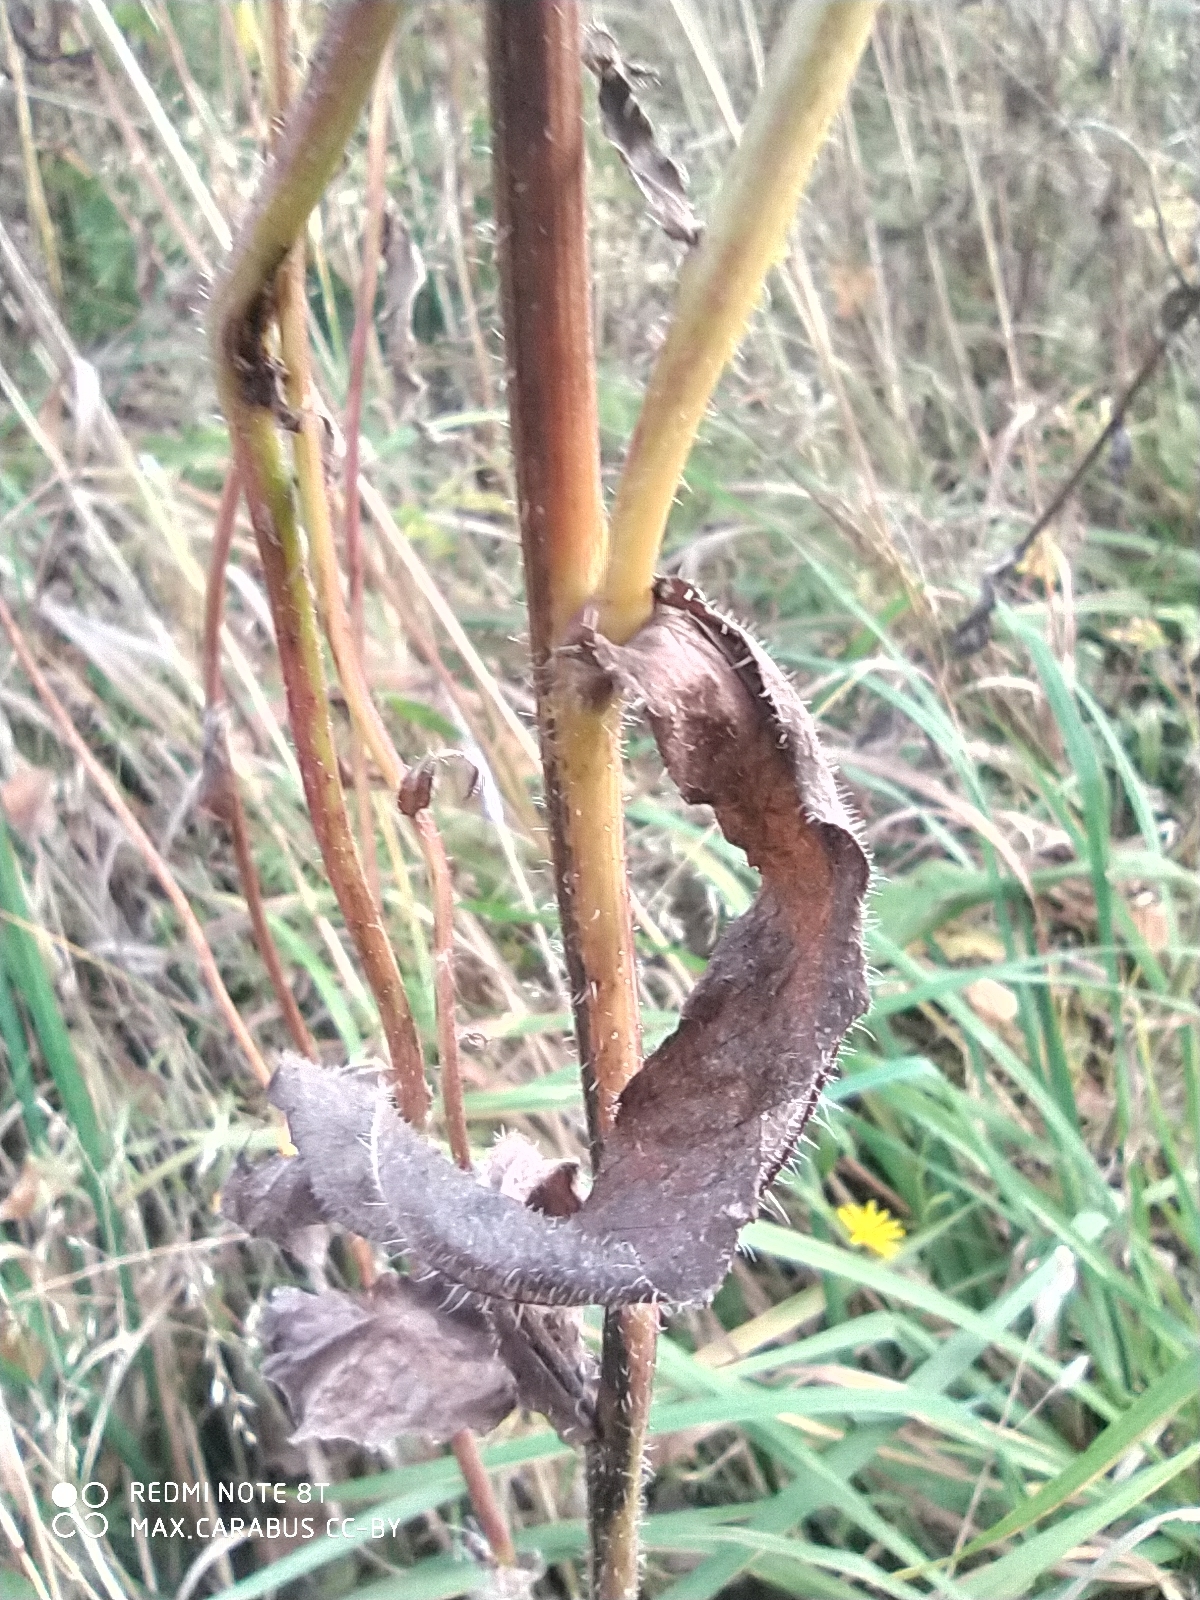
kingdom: Plantae
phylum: Tracheophyta
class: Magnoliopsida
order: Asterales
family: Asteraceae
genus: Picris
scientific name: Picris hieracioides
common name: Hawkweed oxtongue
